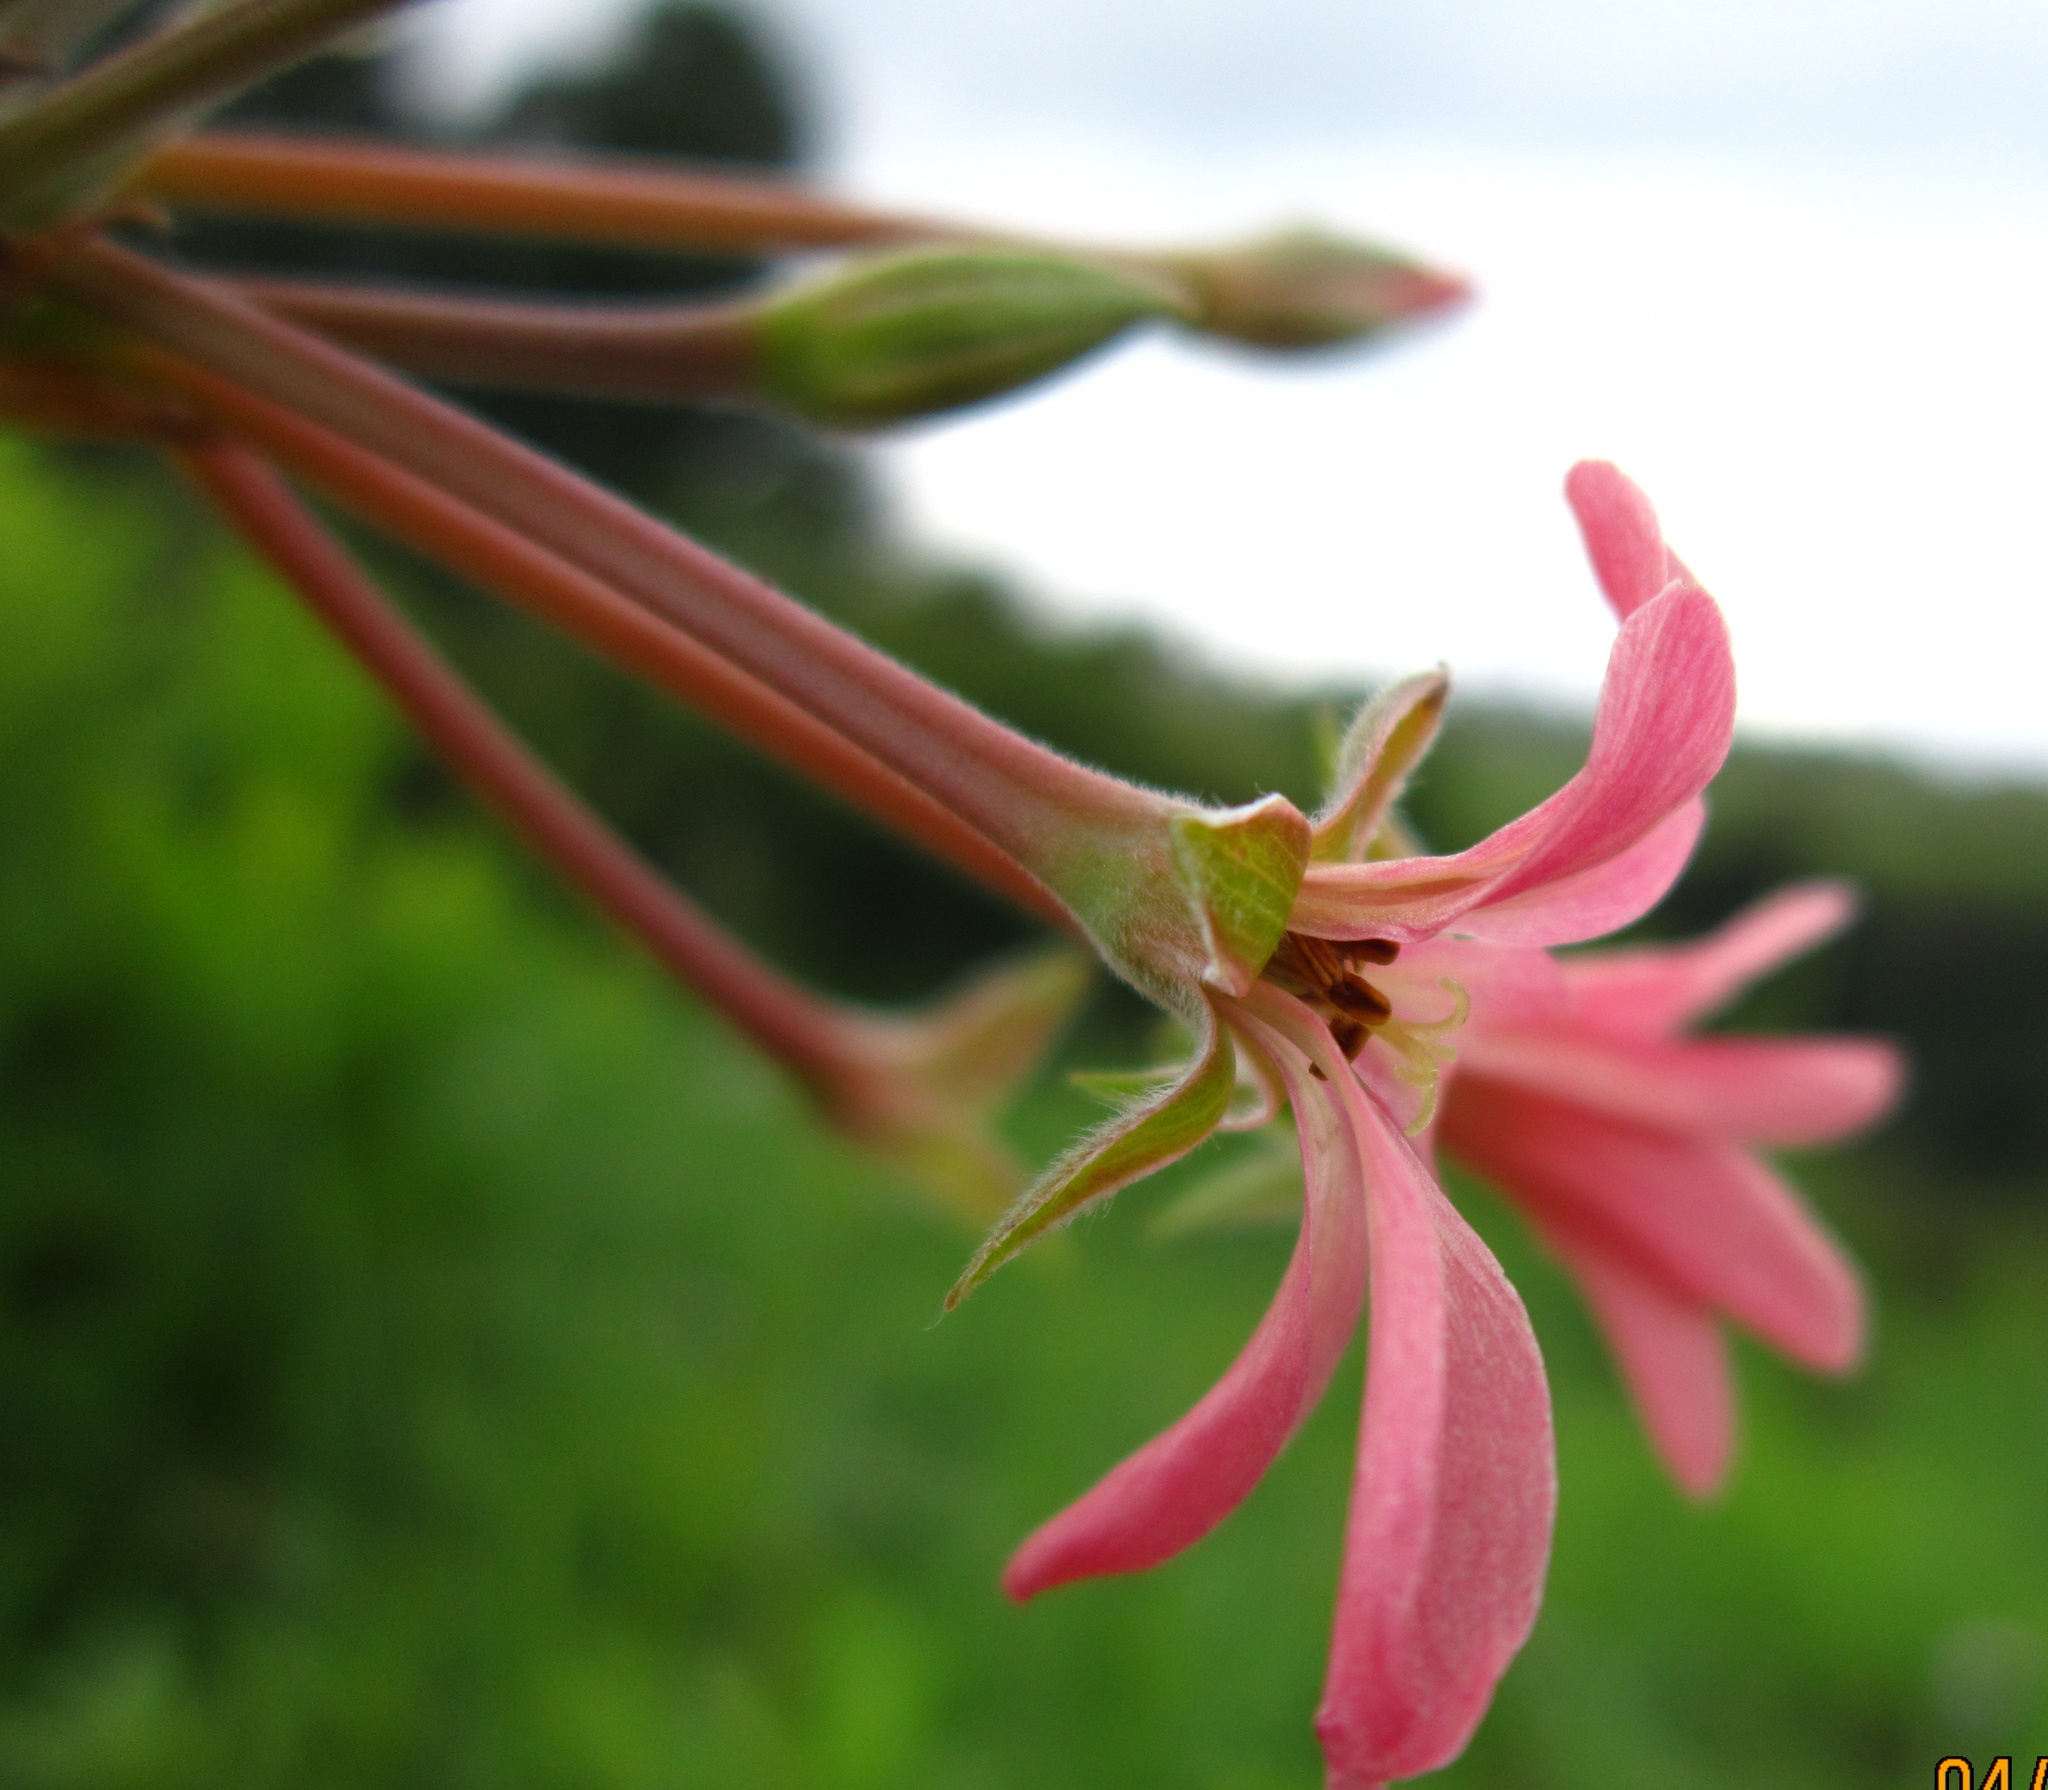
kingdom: Plantae
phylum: Tracheophyta
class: Magnoliopsida
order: Geraniales
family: Geraniaceae
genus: Pelargonium
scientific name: Pelargonium luridum
